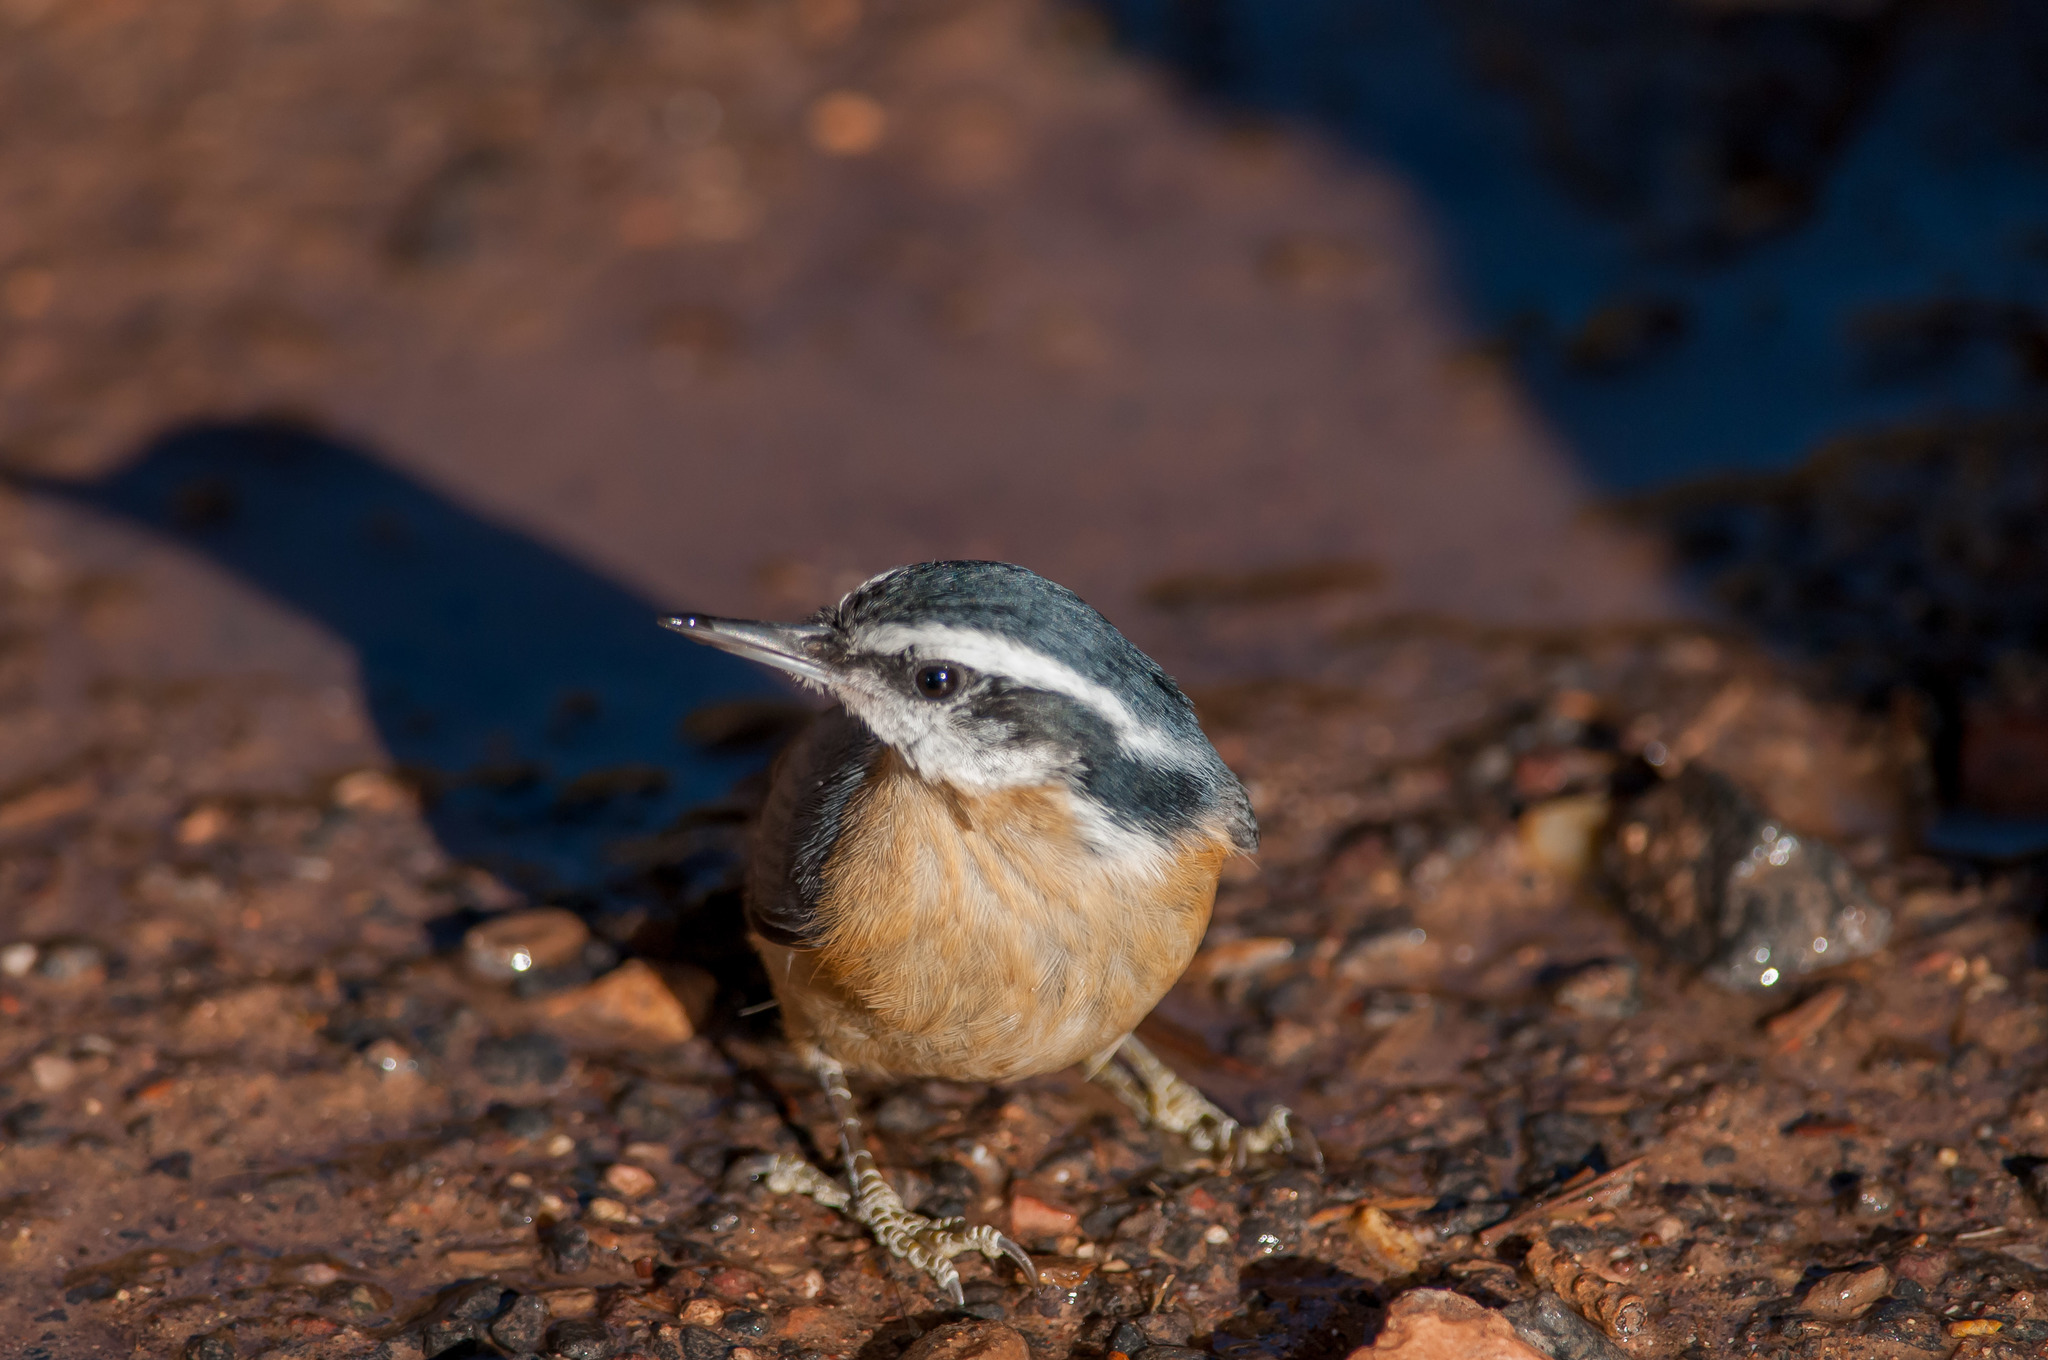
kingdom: Animalia
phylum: Chordata
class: Aves
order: Passeriformes
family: Sittidae
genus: Sitta
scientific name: Sitta canadensis
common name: Red-breasted nuthatch
